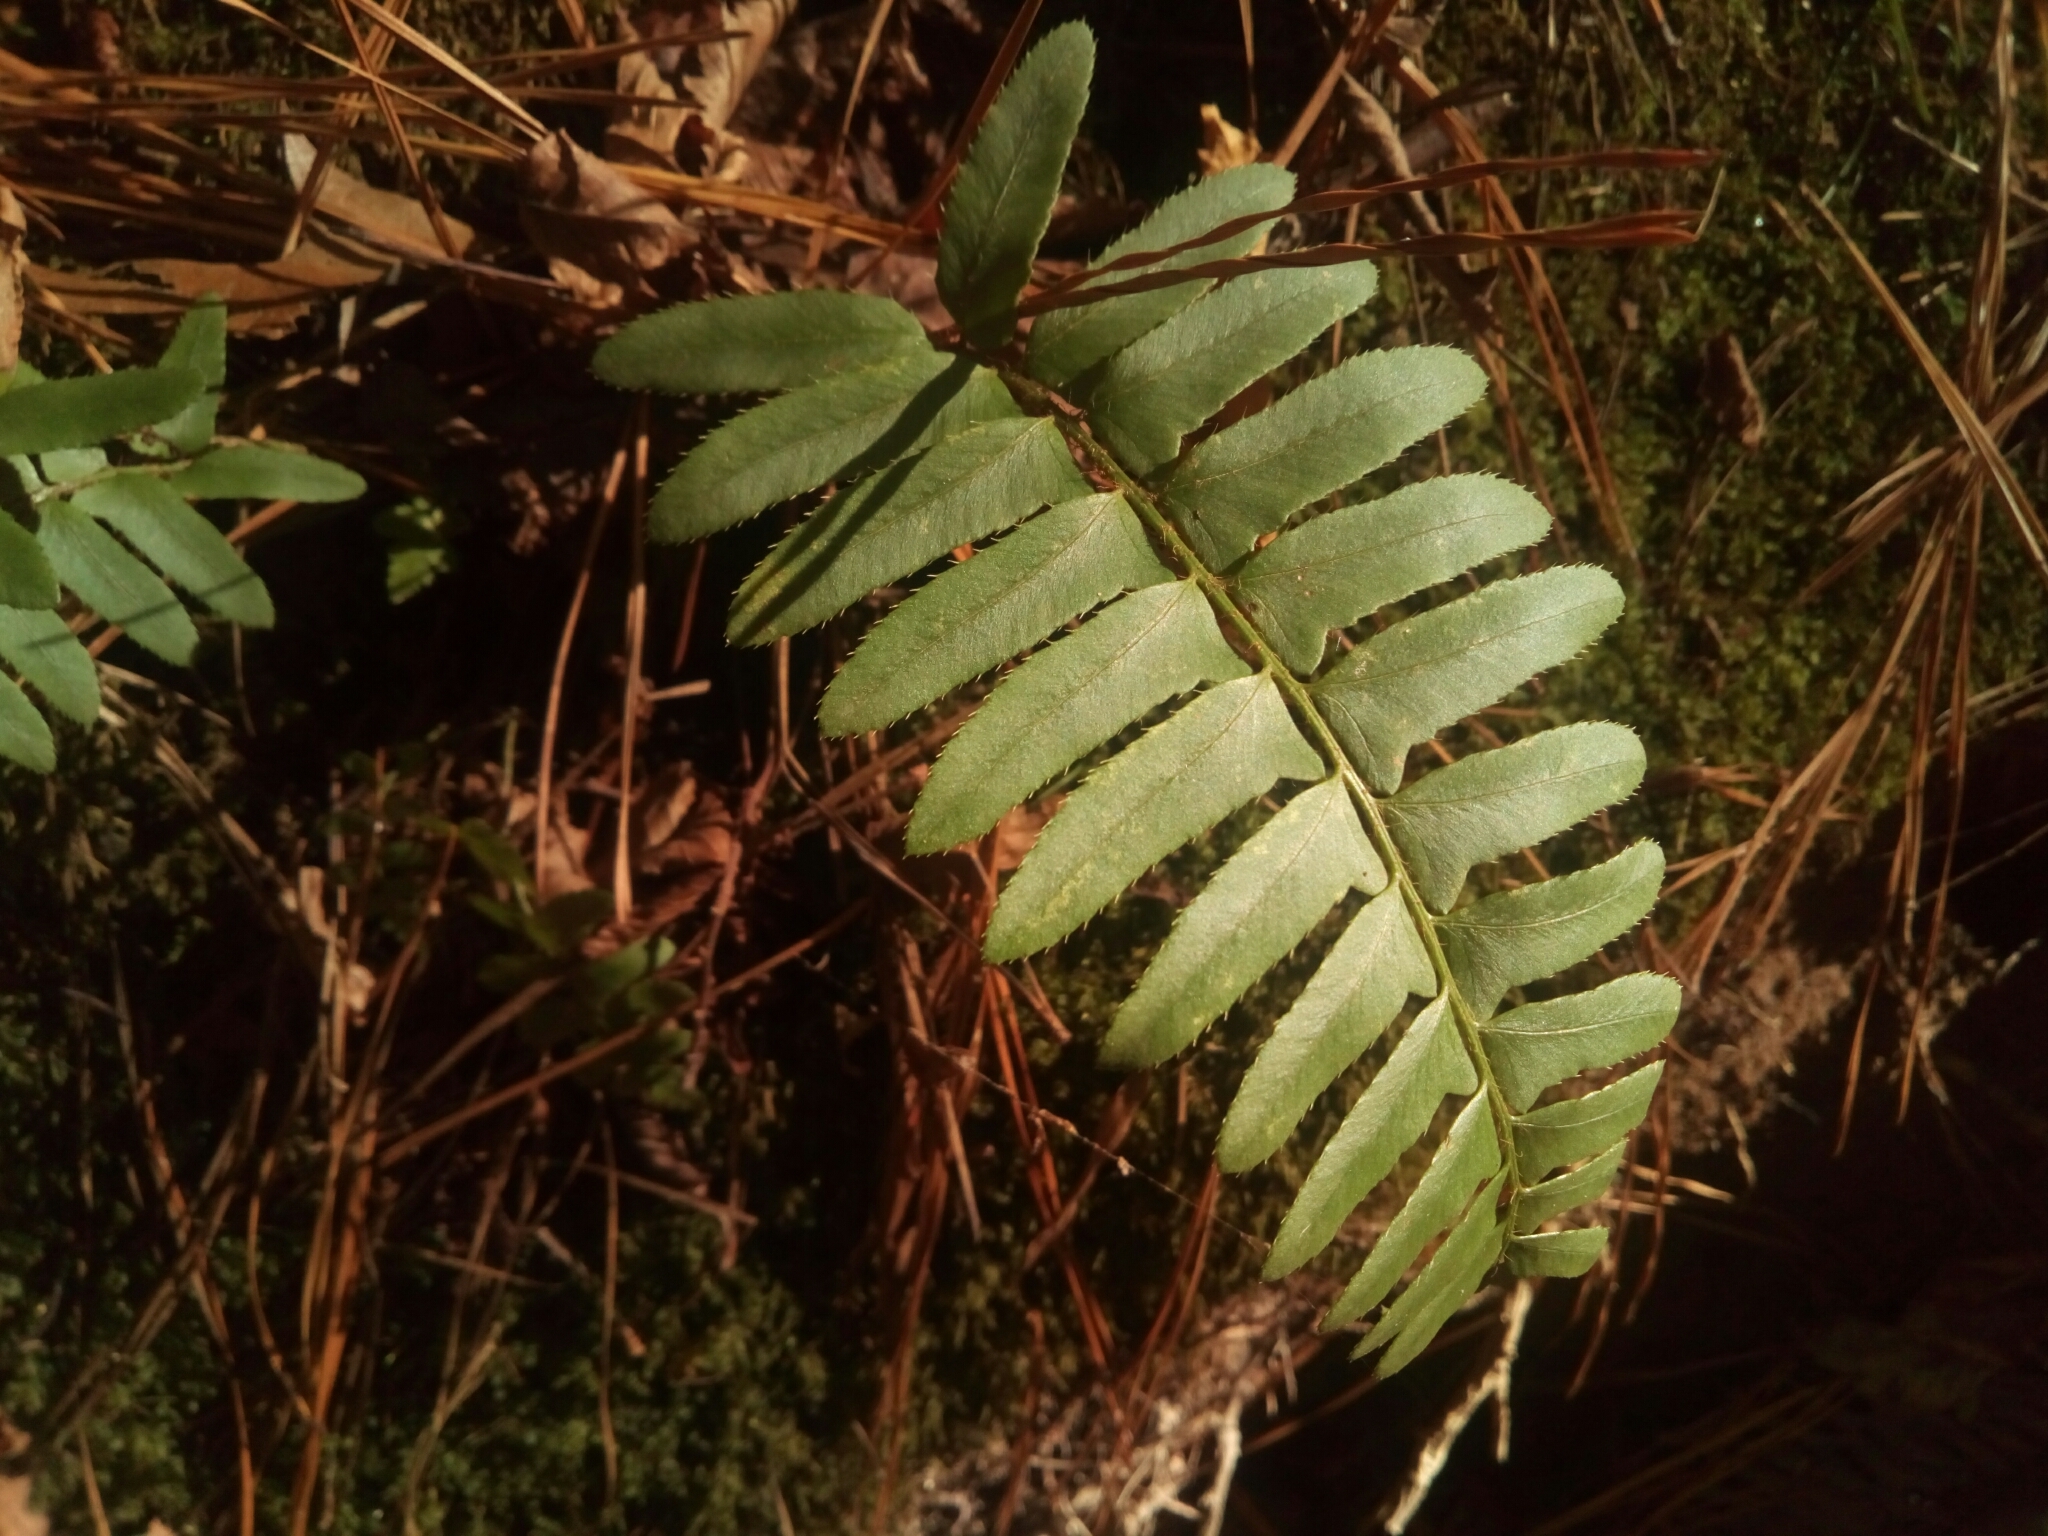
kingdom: Plantae
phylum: Tracheophyta
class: Polypodiopsida
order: Polypodiales
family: Dryopteridaceae
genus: Polystichum
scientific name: Polystichum acrostichoides
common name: Christmas fern
